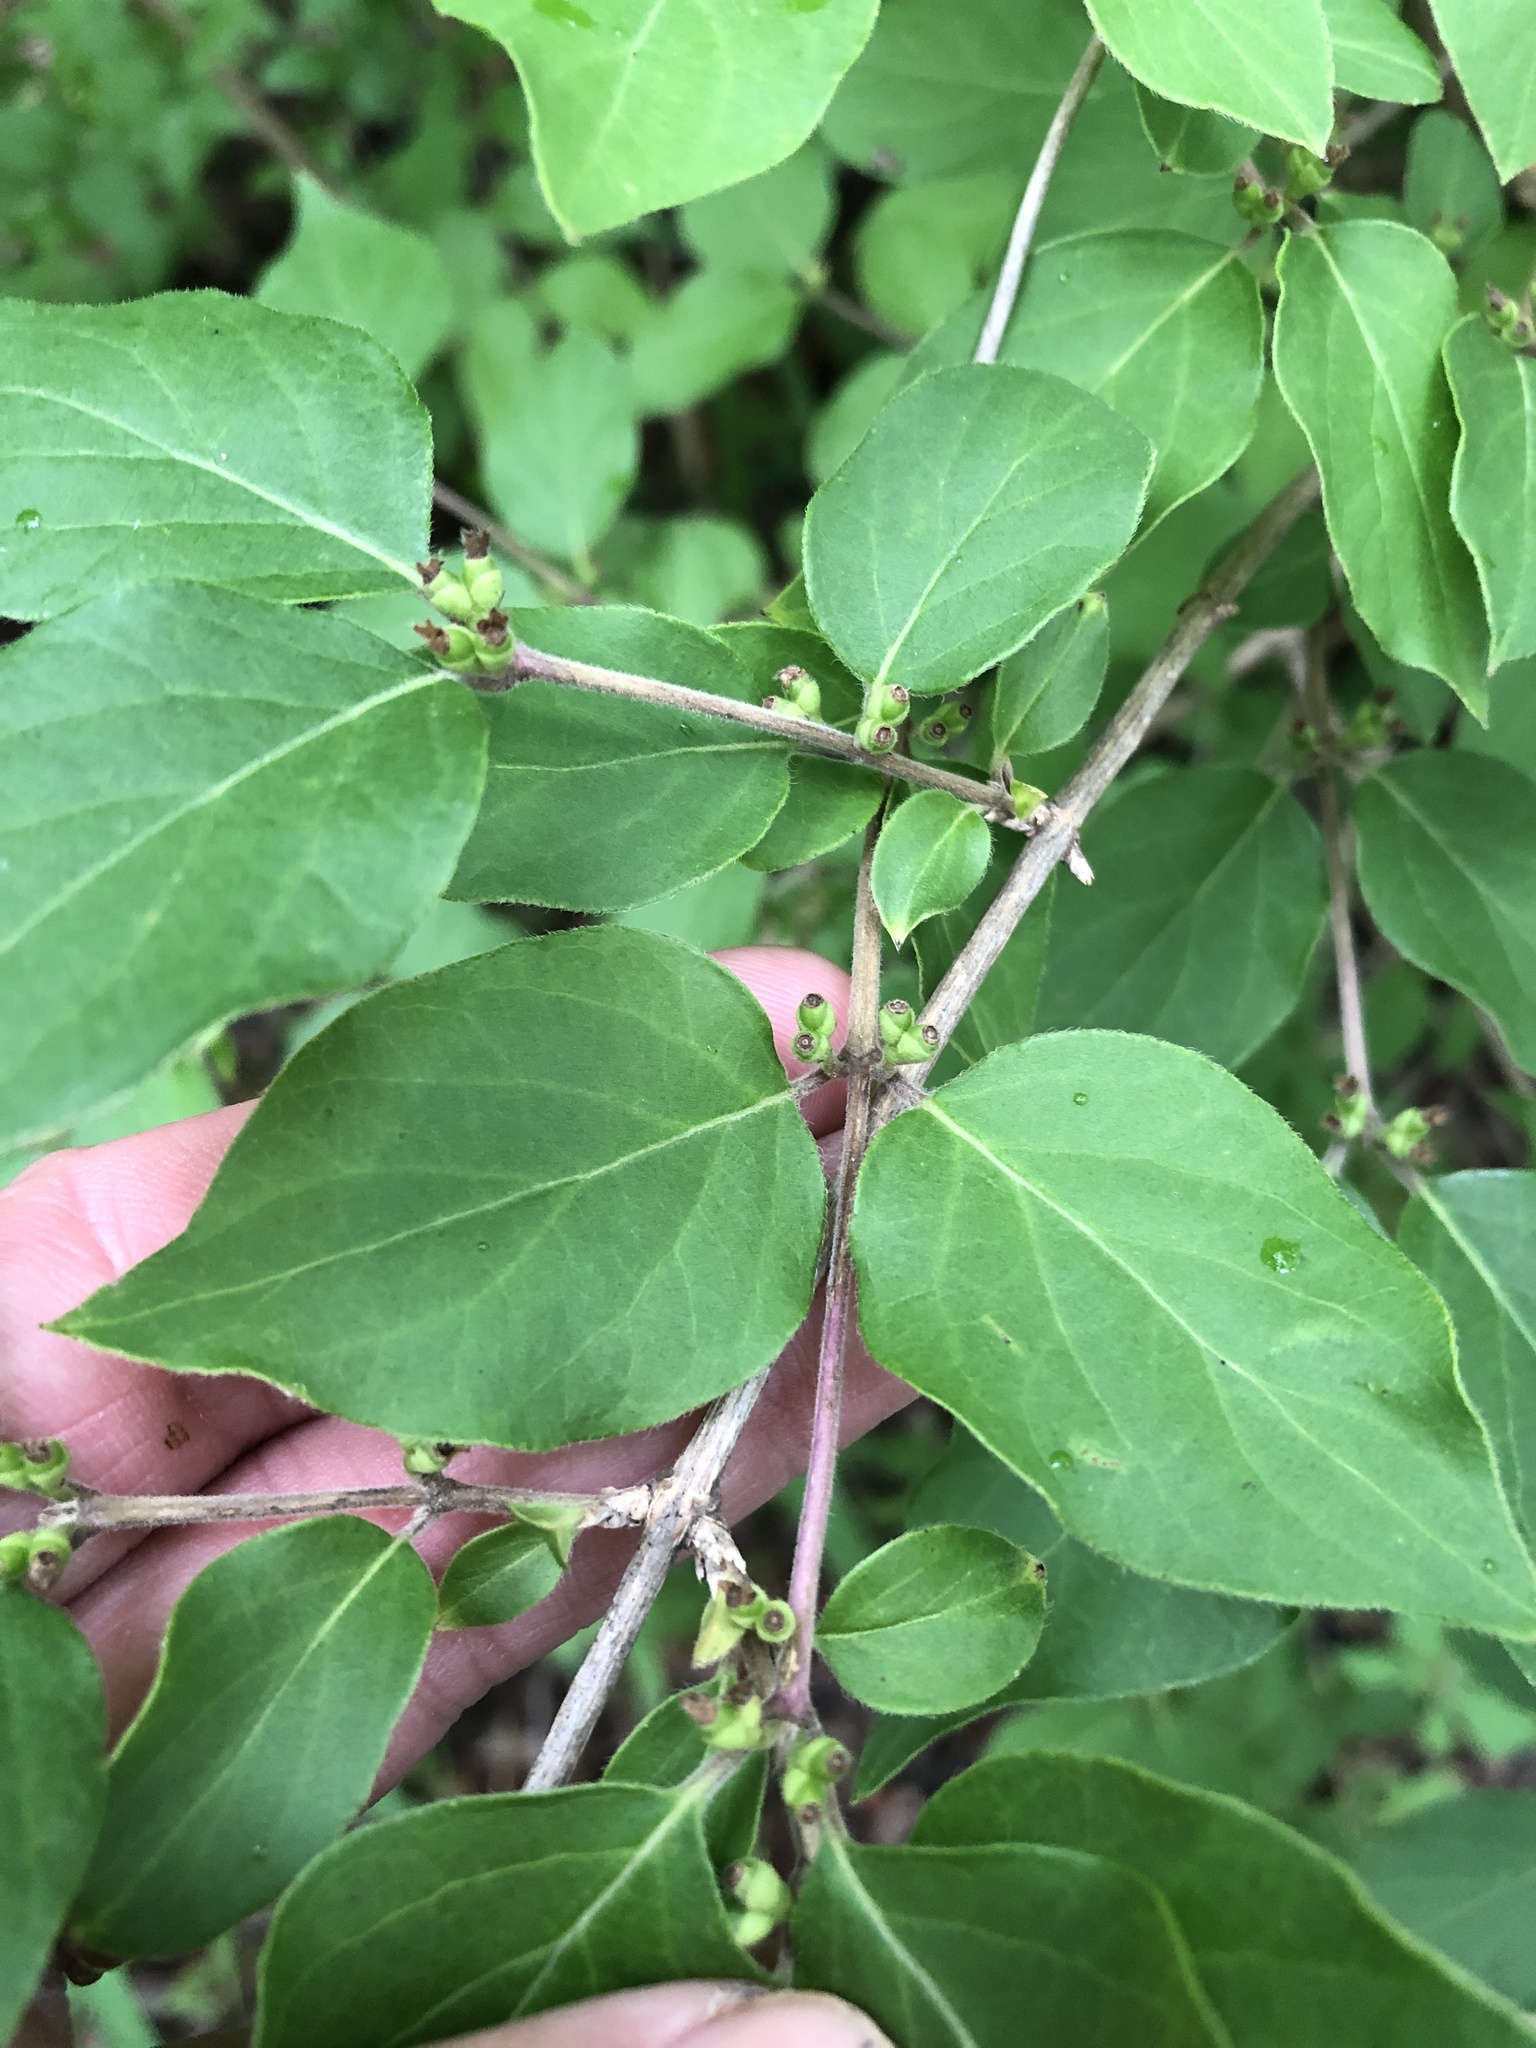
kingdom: Plantae
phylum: Tracheophyta
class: Magnoliopsida
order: Dipsacales
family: Caprifoliaceae
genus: Lonicera
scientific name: Lonicera maackii
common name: Amur honeysuckle
